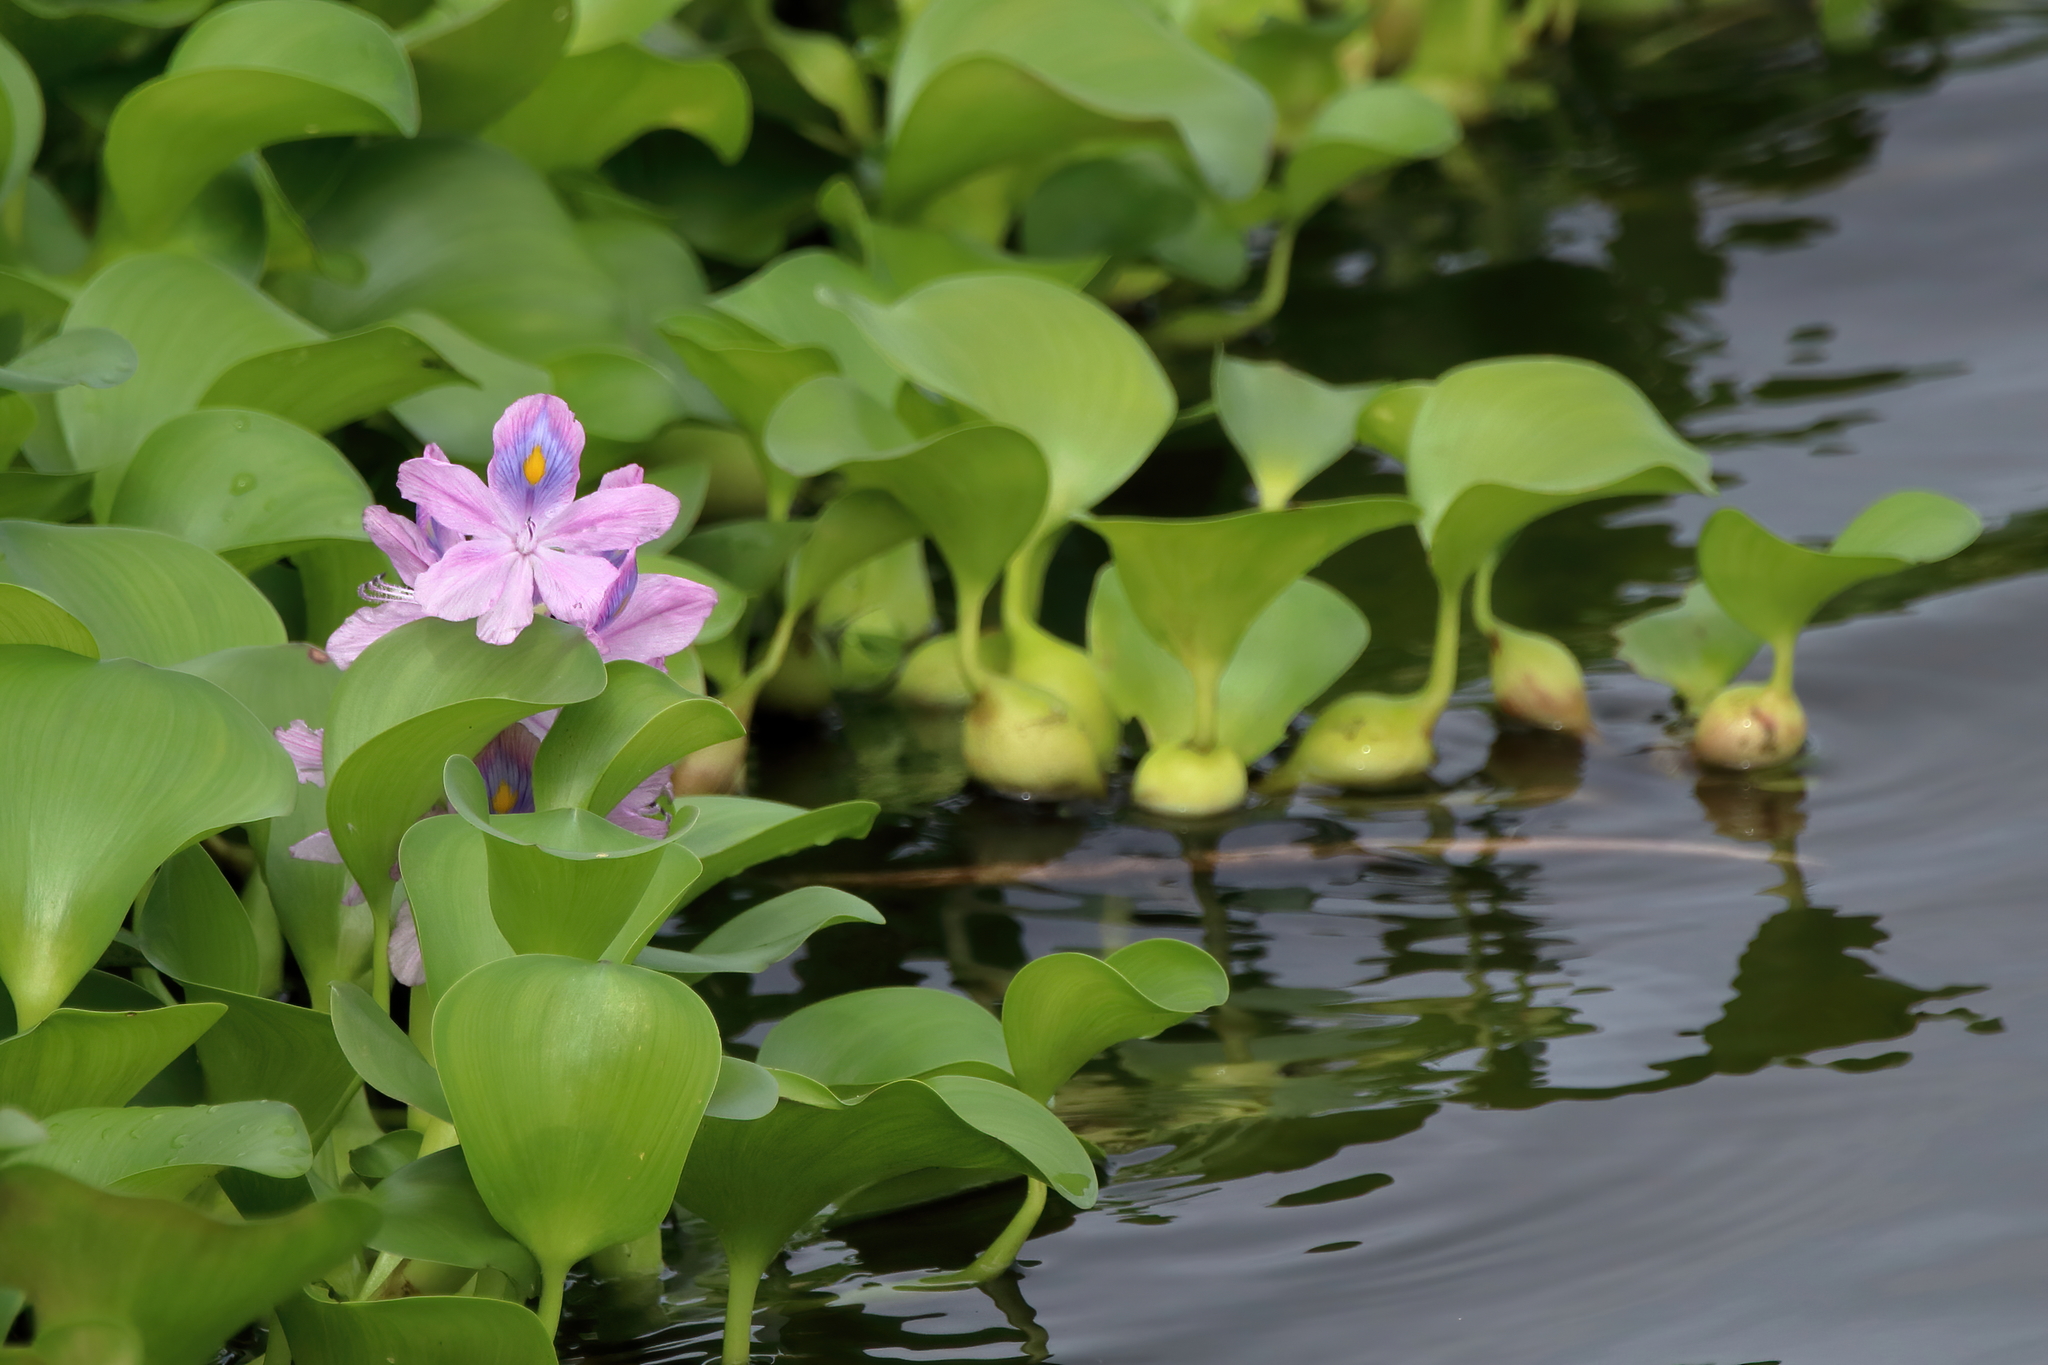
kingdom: Plantae
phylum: Tracheophyta
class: Liliopsida
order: Commelinales
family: Pontederiaceae
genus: Pontederia
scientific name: Pontederia crassipes
